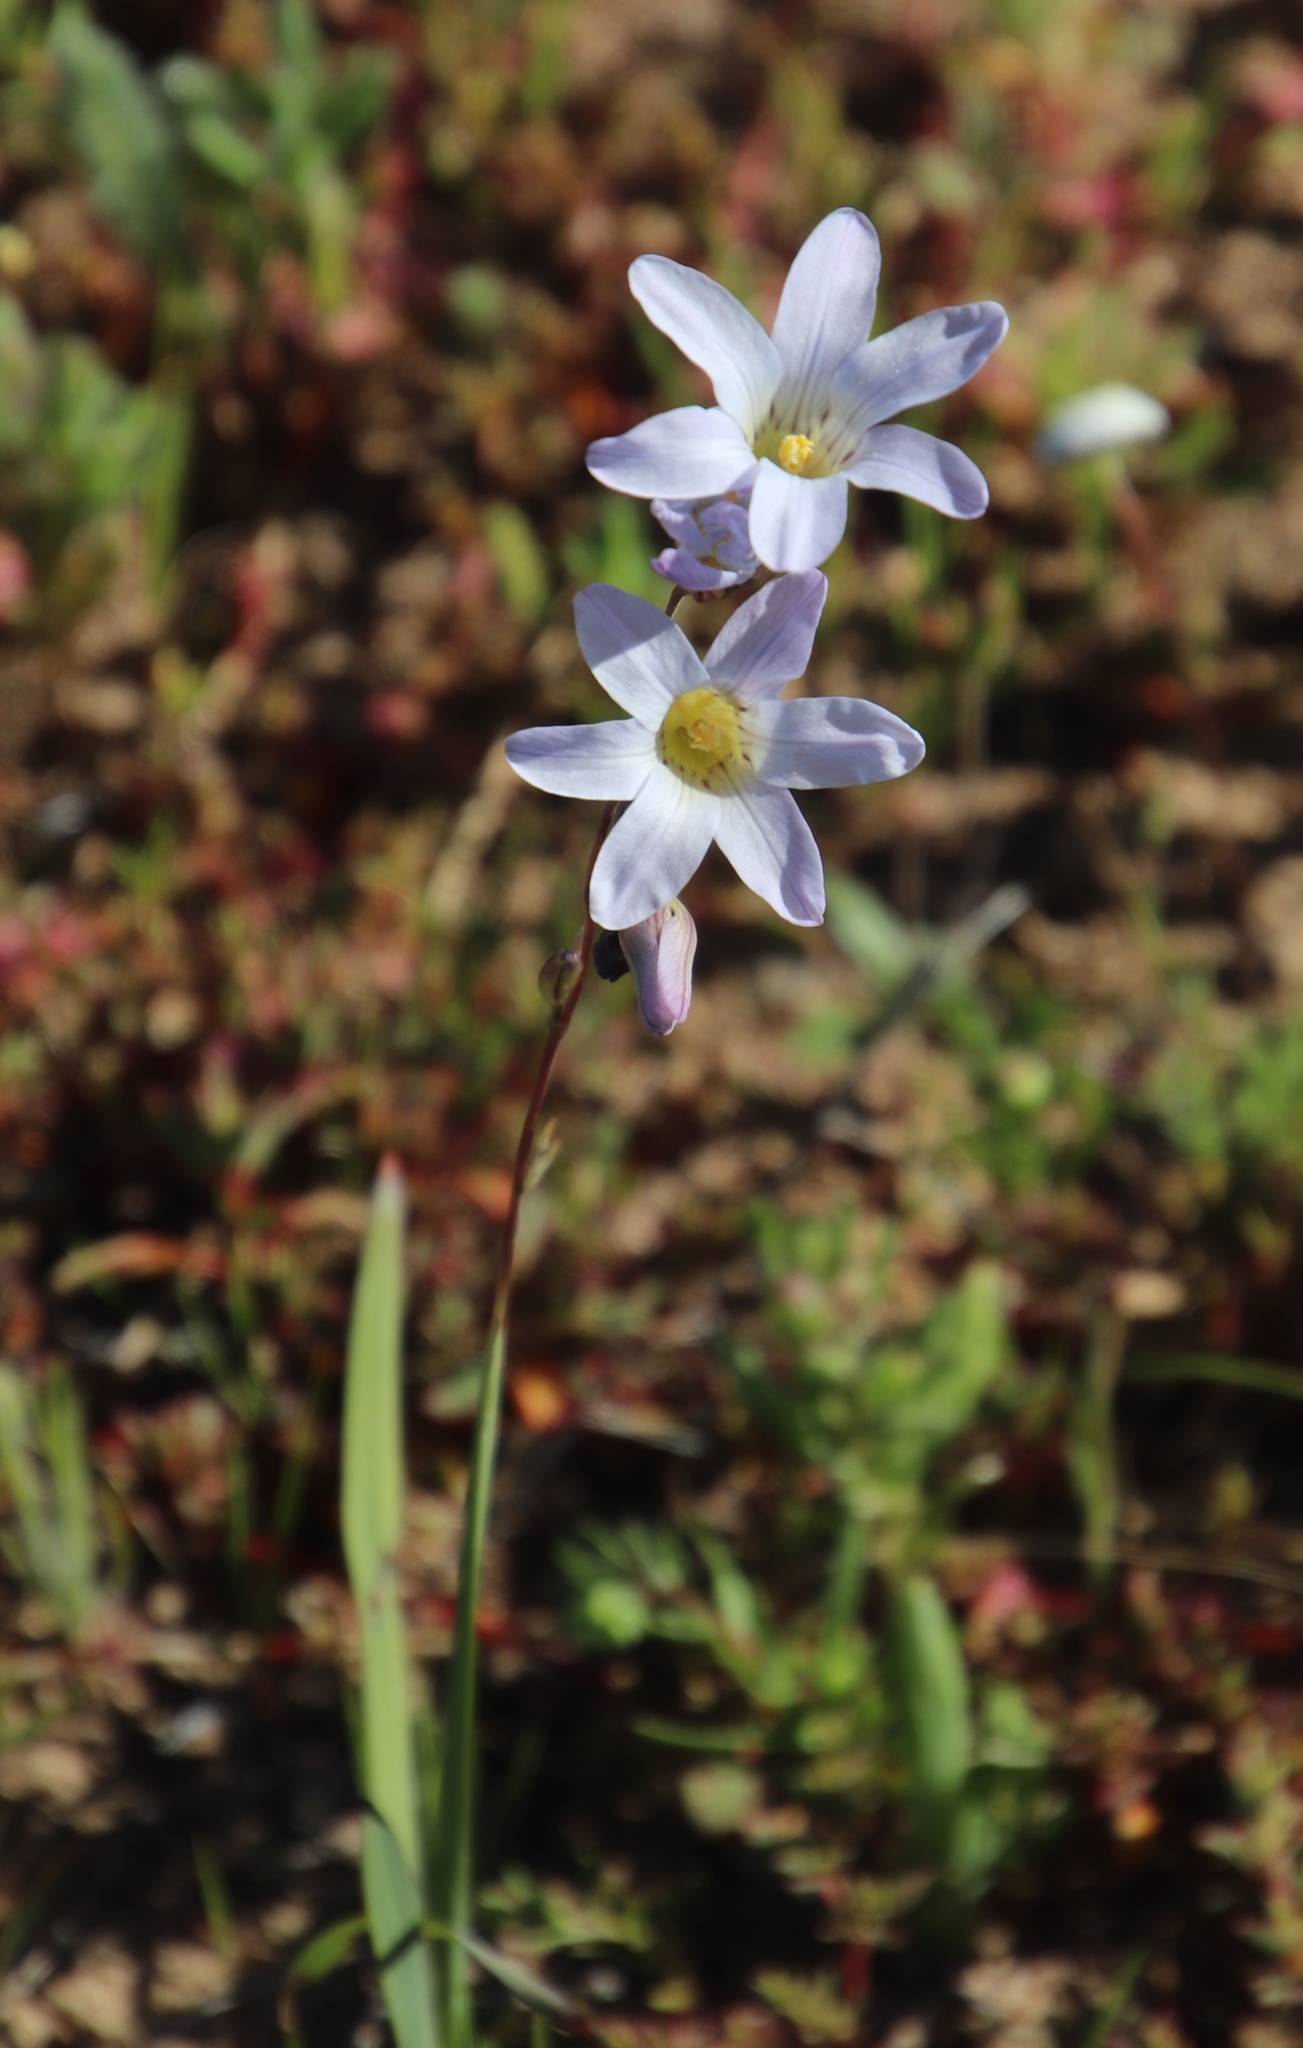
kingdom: Plantae
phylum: Tracheophyta
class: Liliopsida
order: Asparagales
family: Iridaceae
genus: Ixia
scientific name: Ixia rapunculoides
